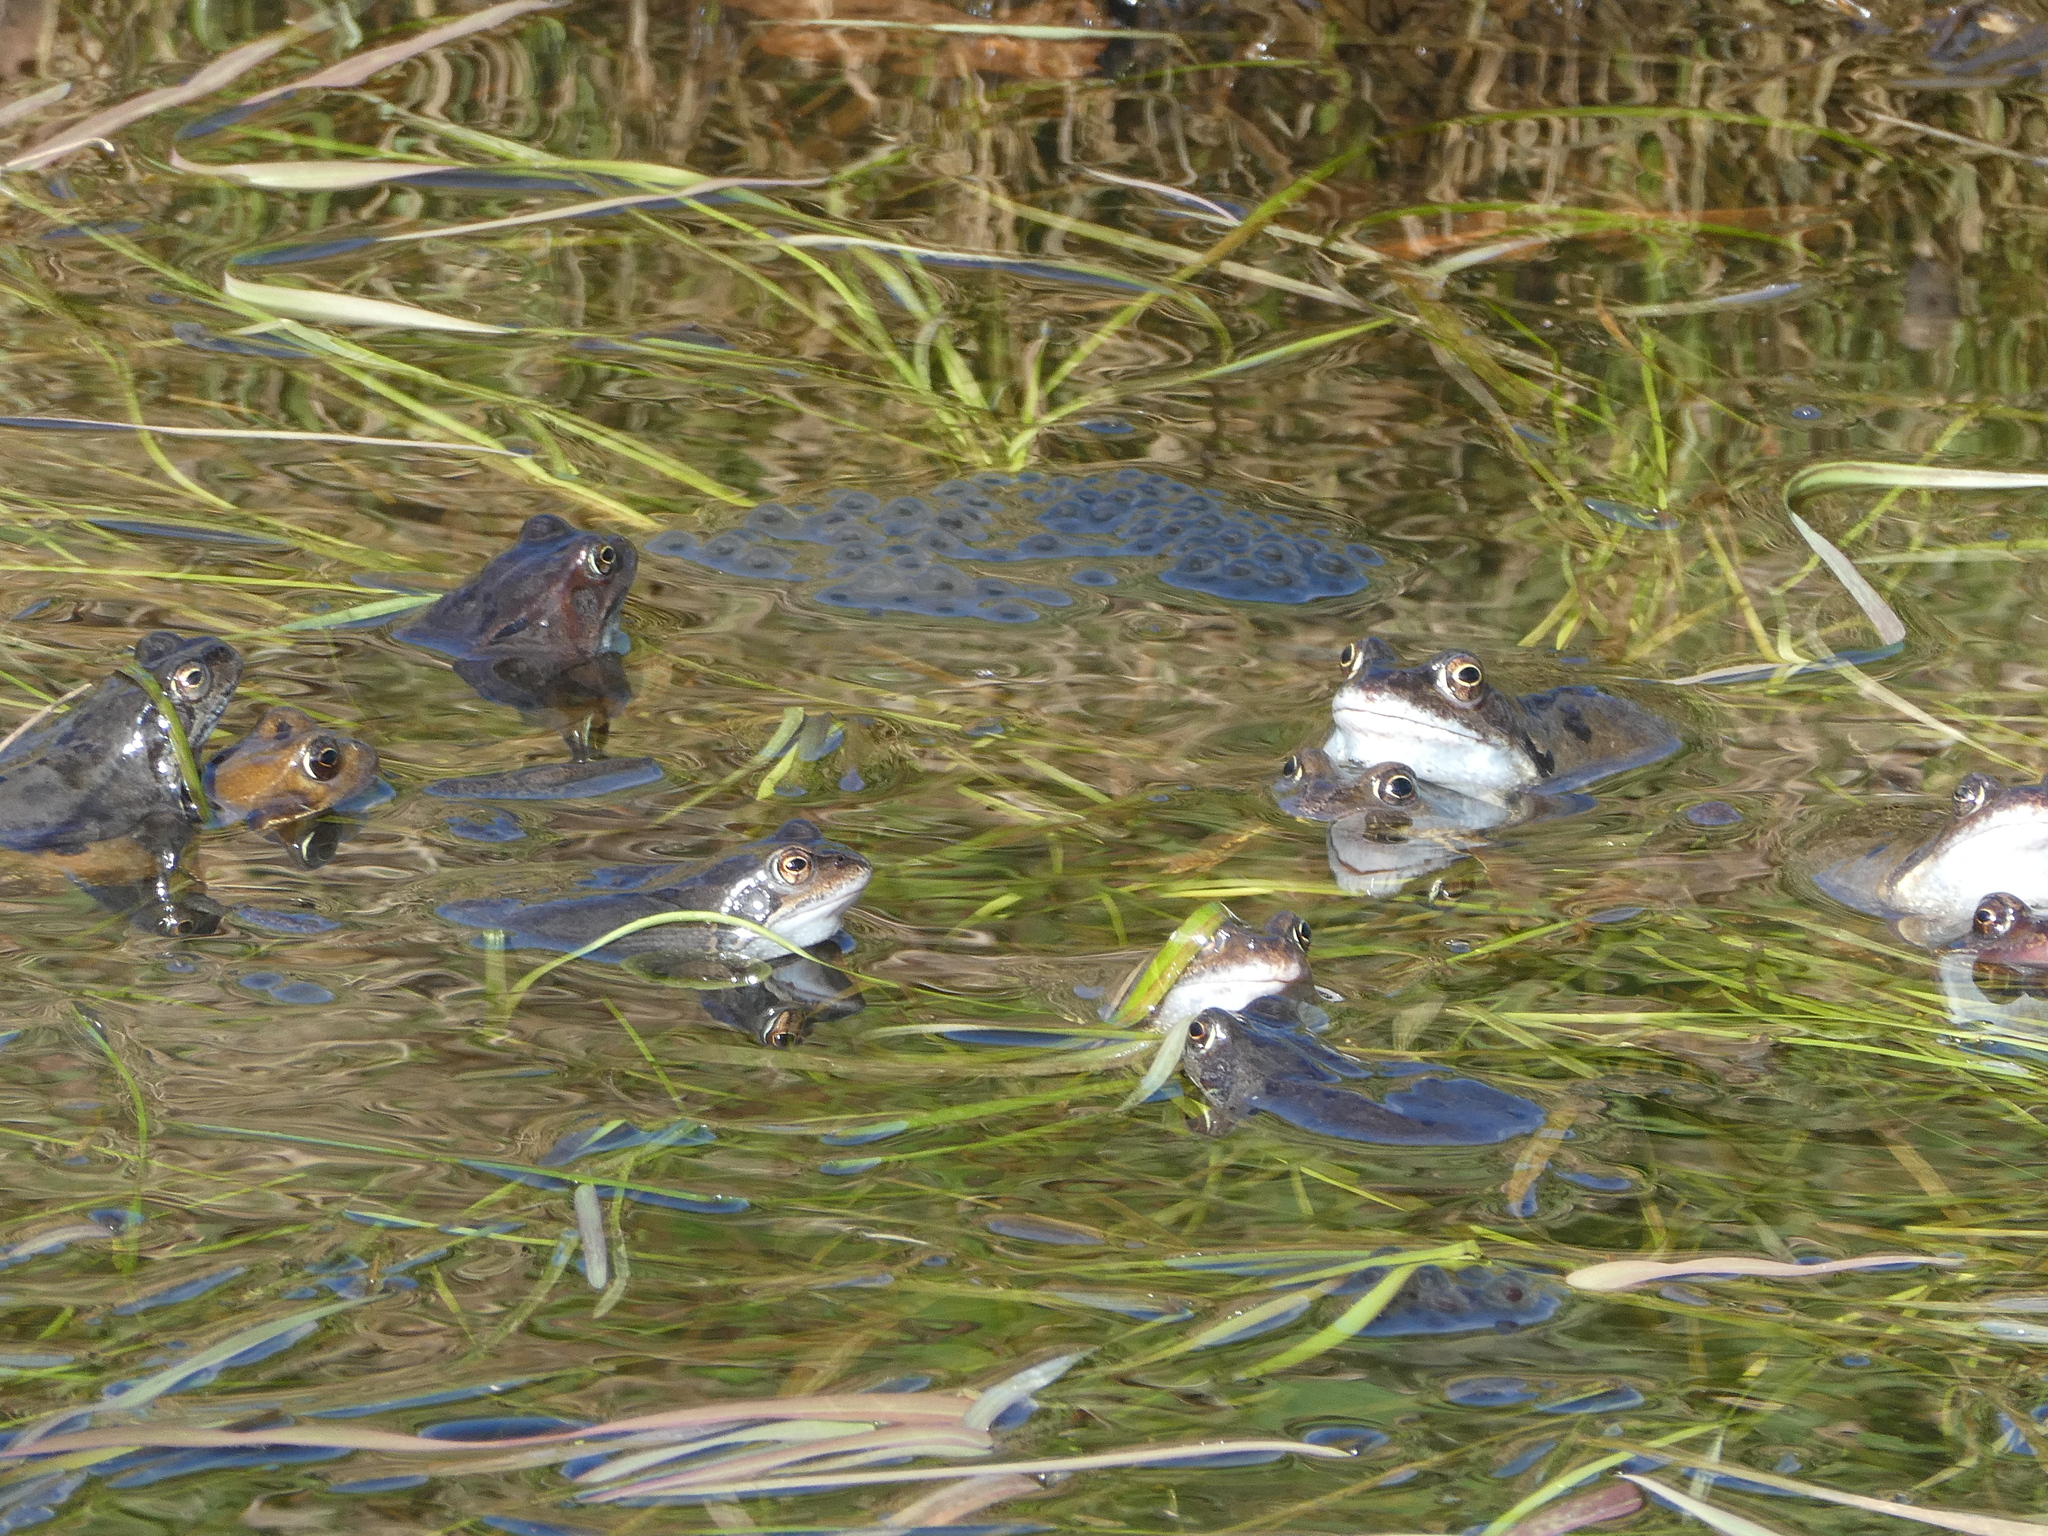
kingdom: Animalia
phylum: Chordata
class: Amphibia
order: Anura
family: Ranidae
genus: Rana
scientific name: Rana temporaria
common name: Common frog
